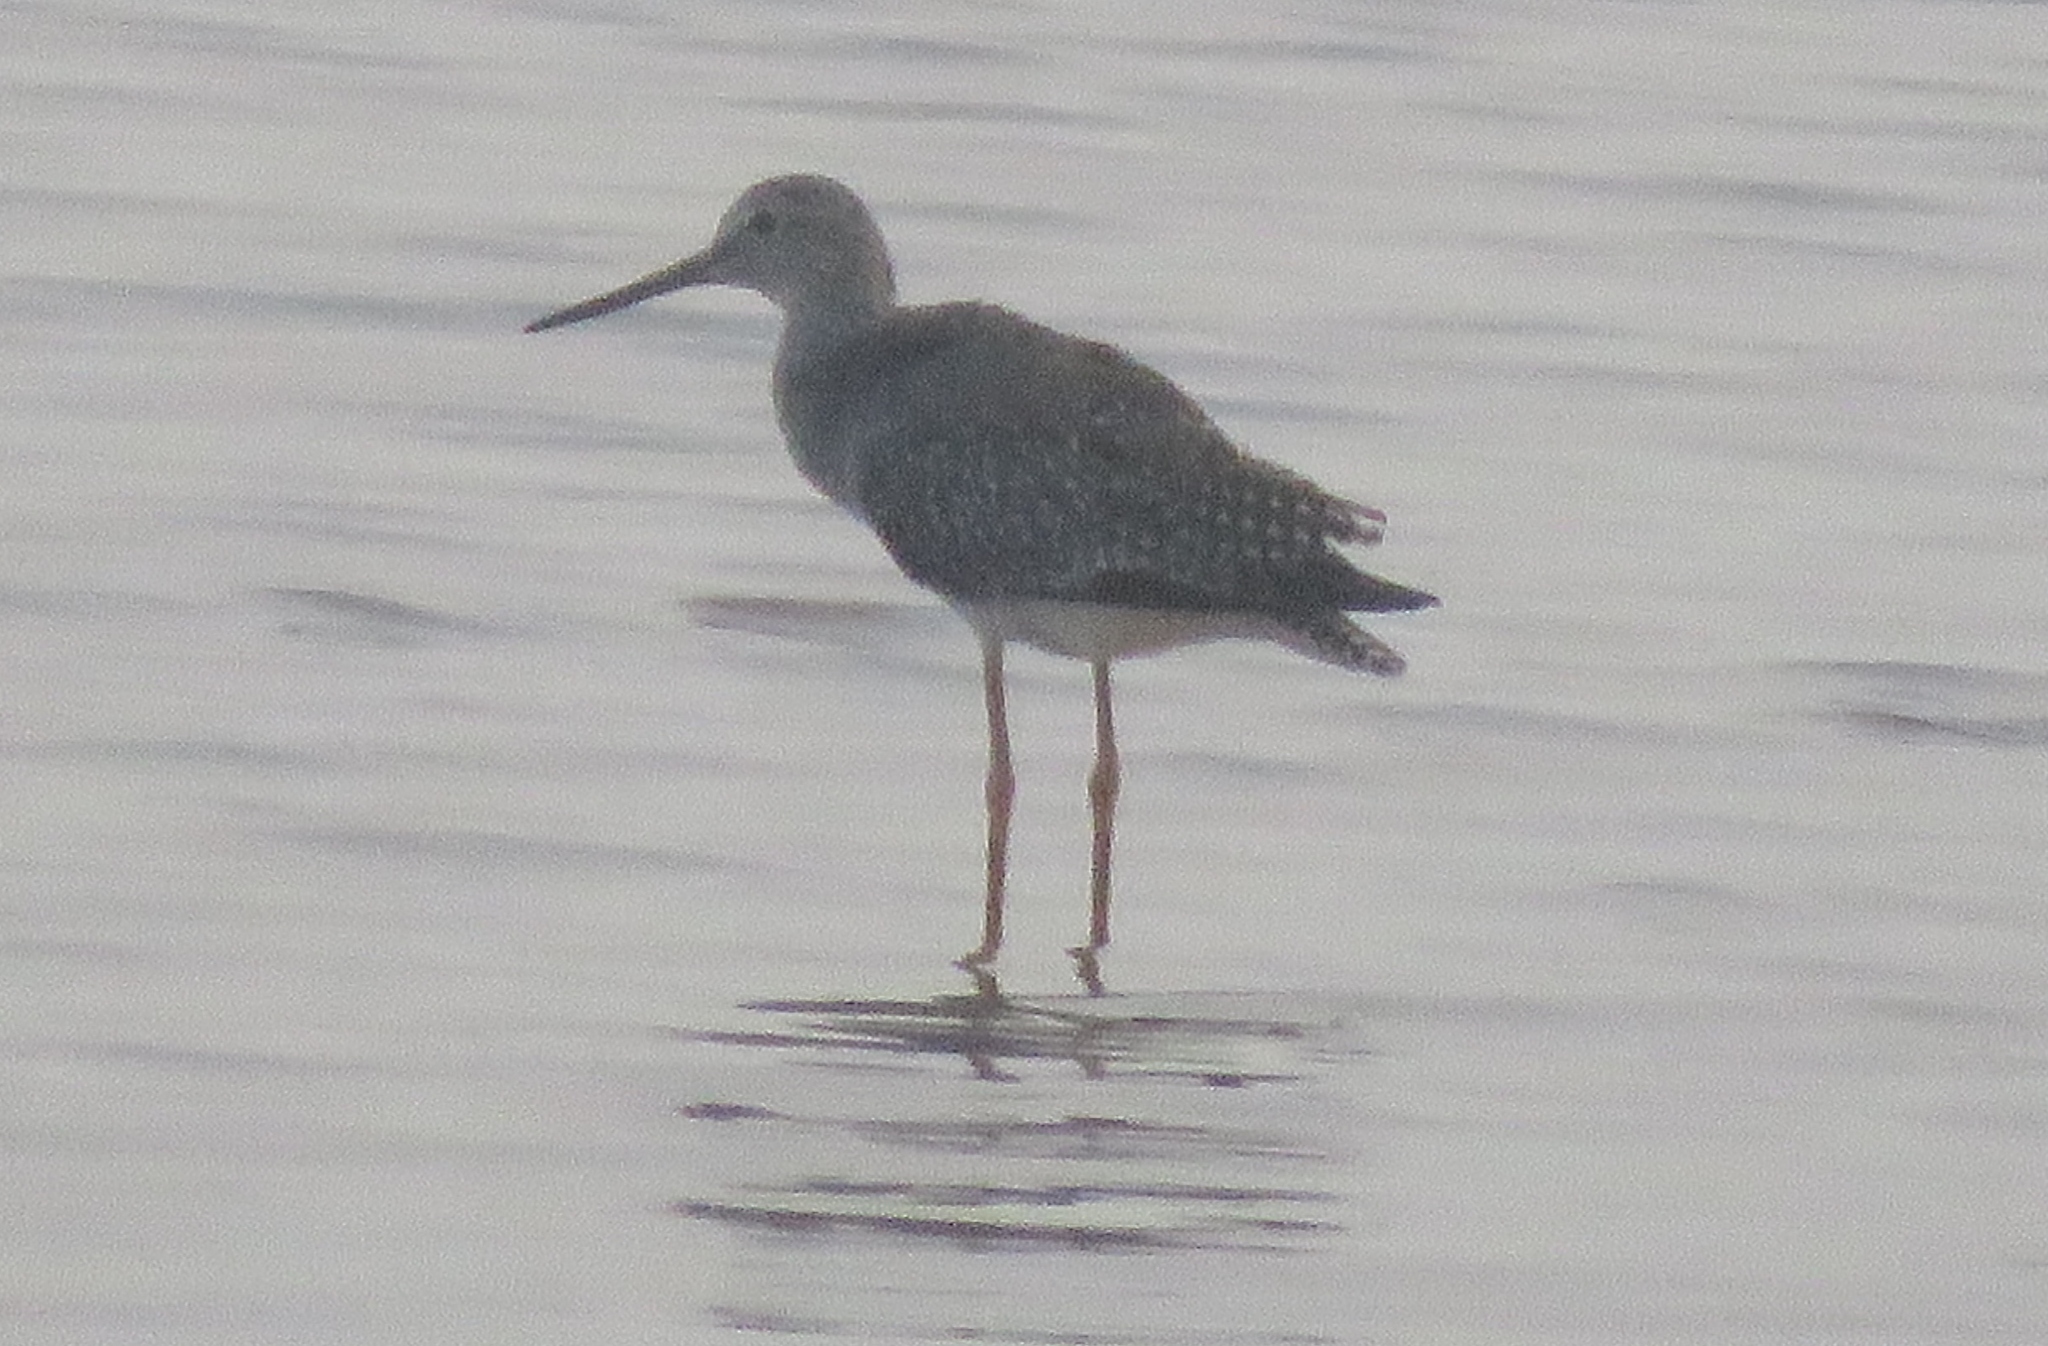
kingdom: Animalia
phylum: Chordata
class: Aves
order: Charadriiformes
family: Scolopacidae
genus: Tringa
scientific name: Tringa melanoleuca
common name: Greater yellowlegs
